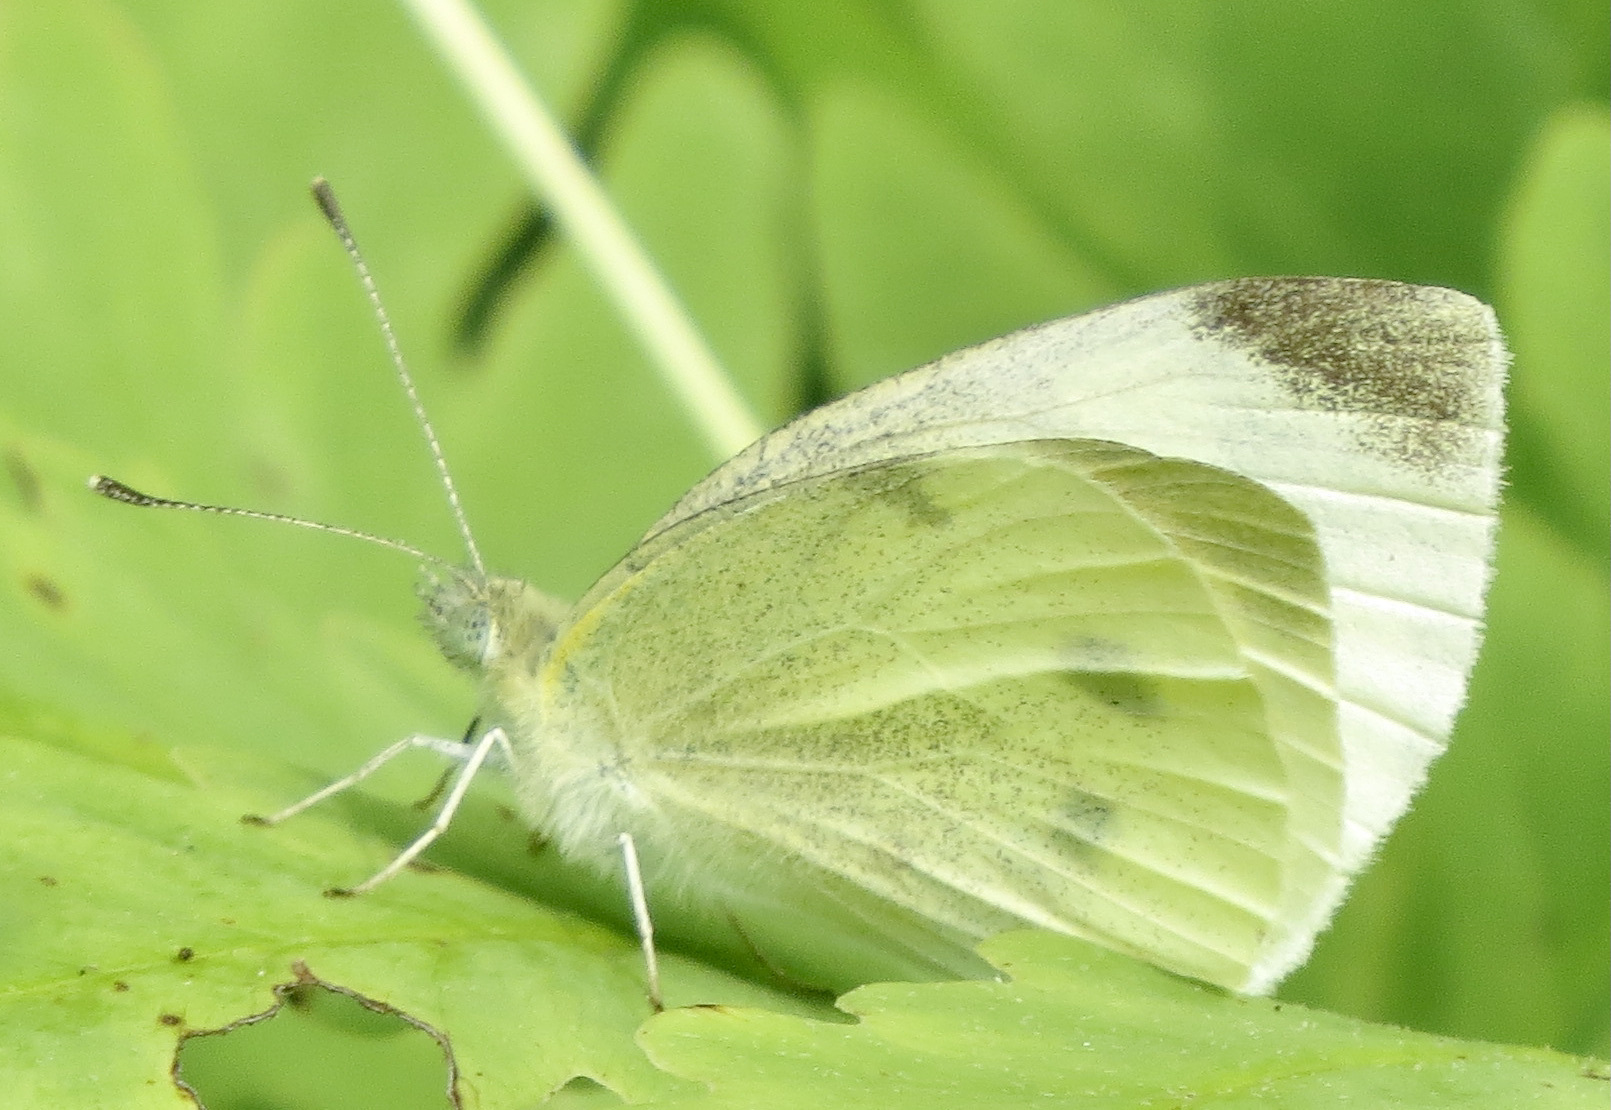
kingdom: Animalia
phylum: Arthropoda
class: Insecta
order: Lepidoptera
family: Pieridae
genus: Pieris
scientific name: Pieris rapae
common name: Small white
